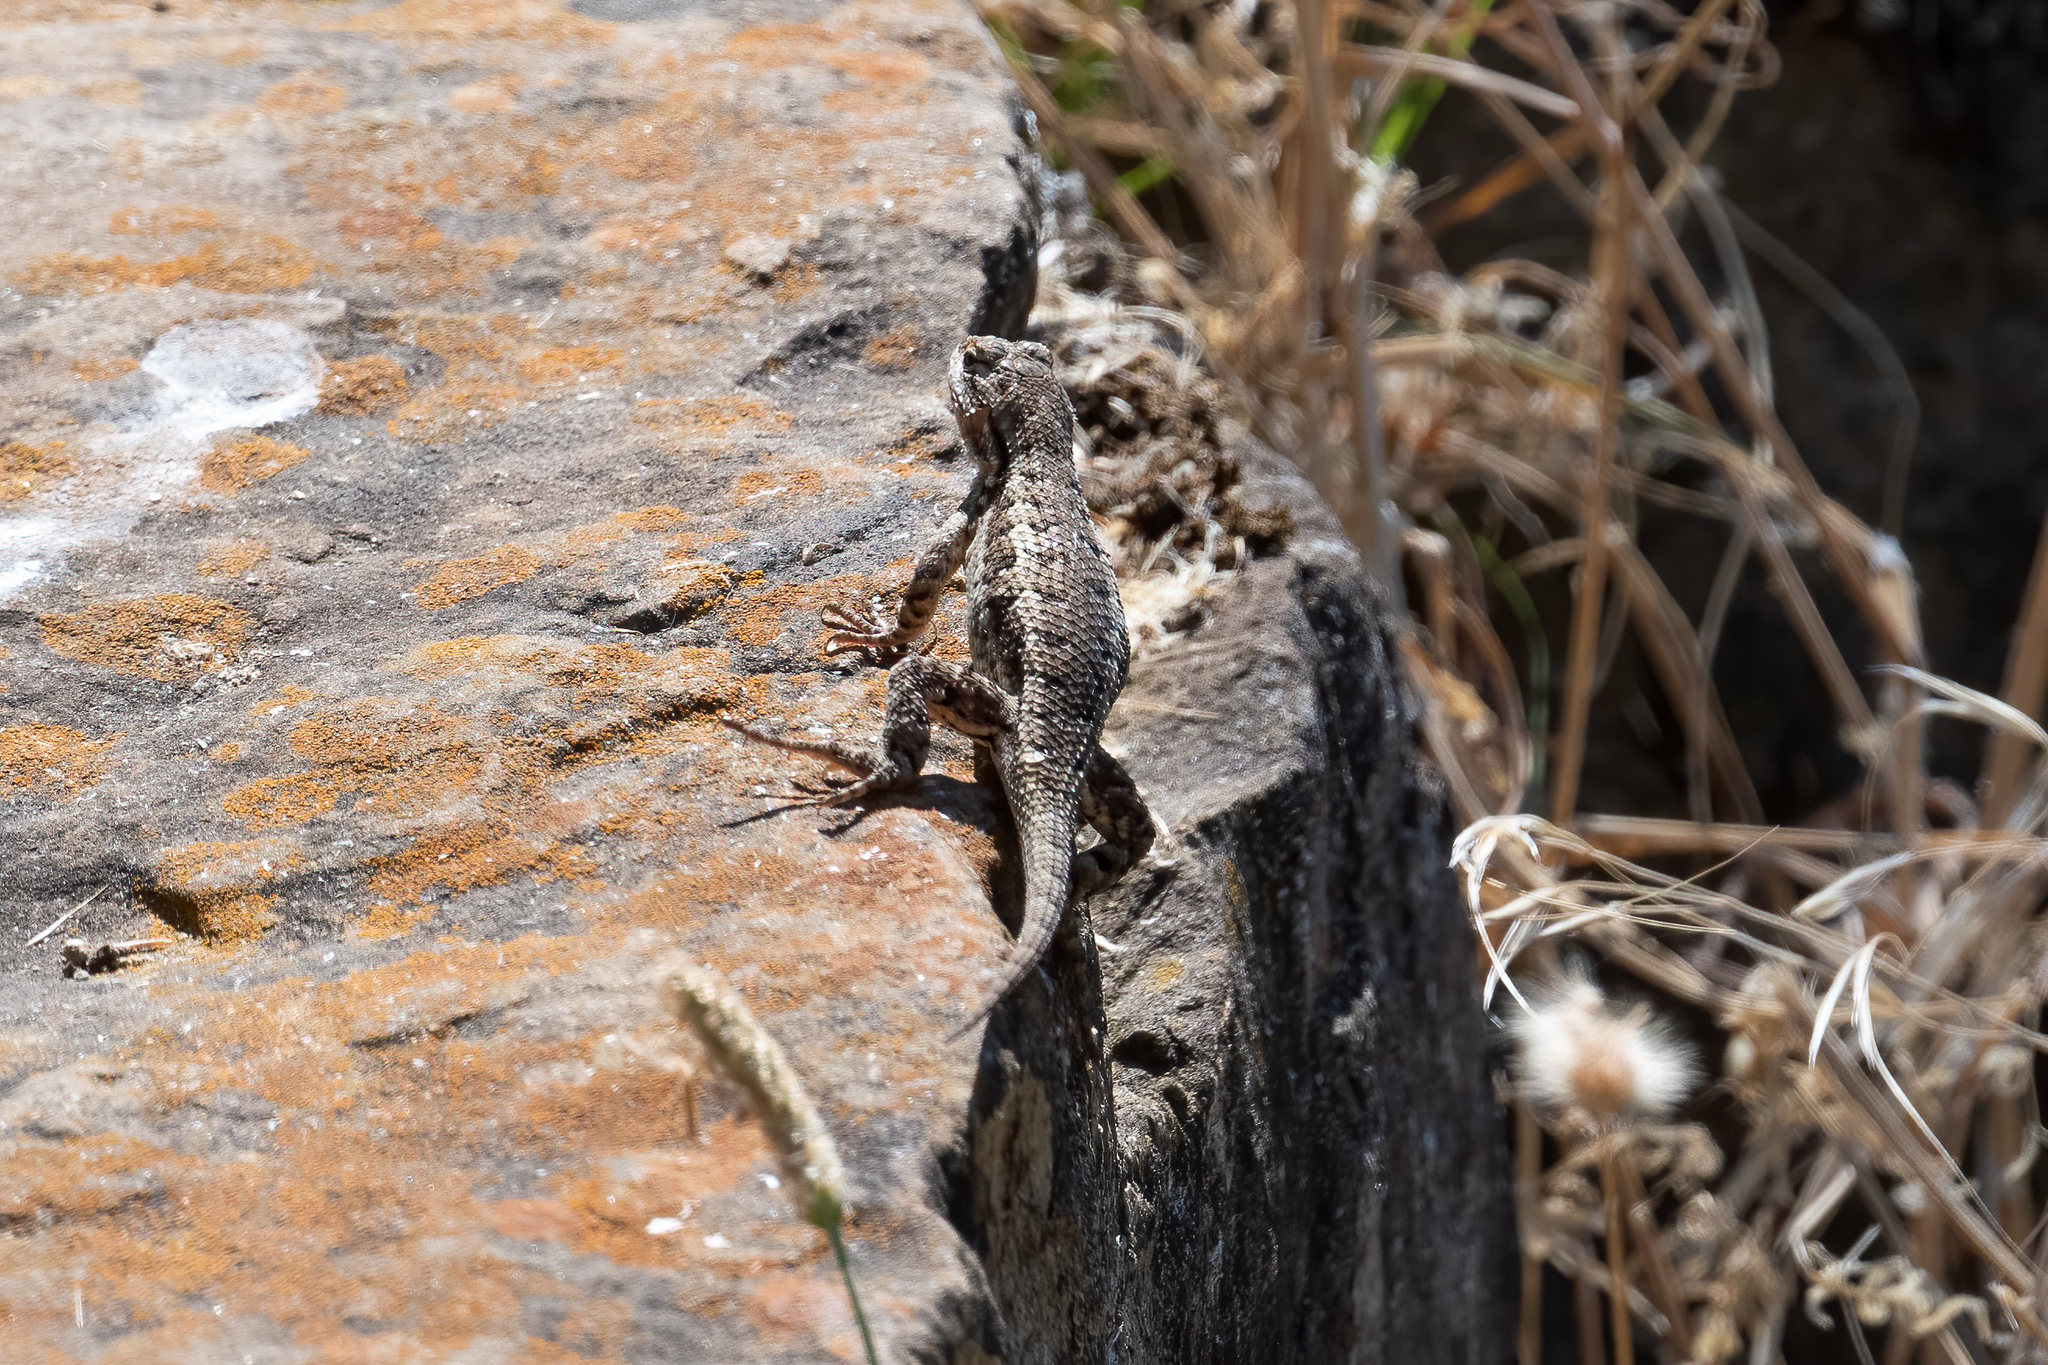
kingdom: Animalia
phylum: Chordata
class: Squamata
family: Phrynosomatidae
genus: Sceloporus
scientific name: Sceloporus occidentalis
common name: Western fence lizard
